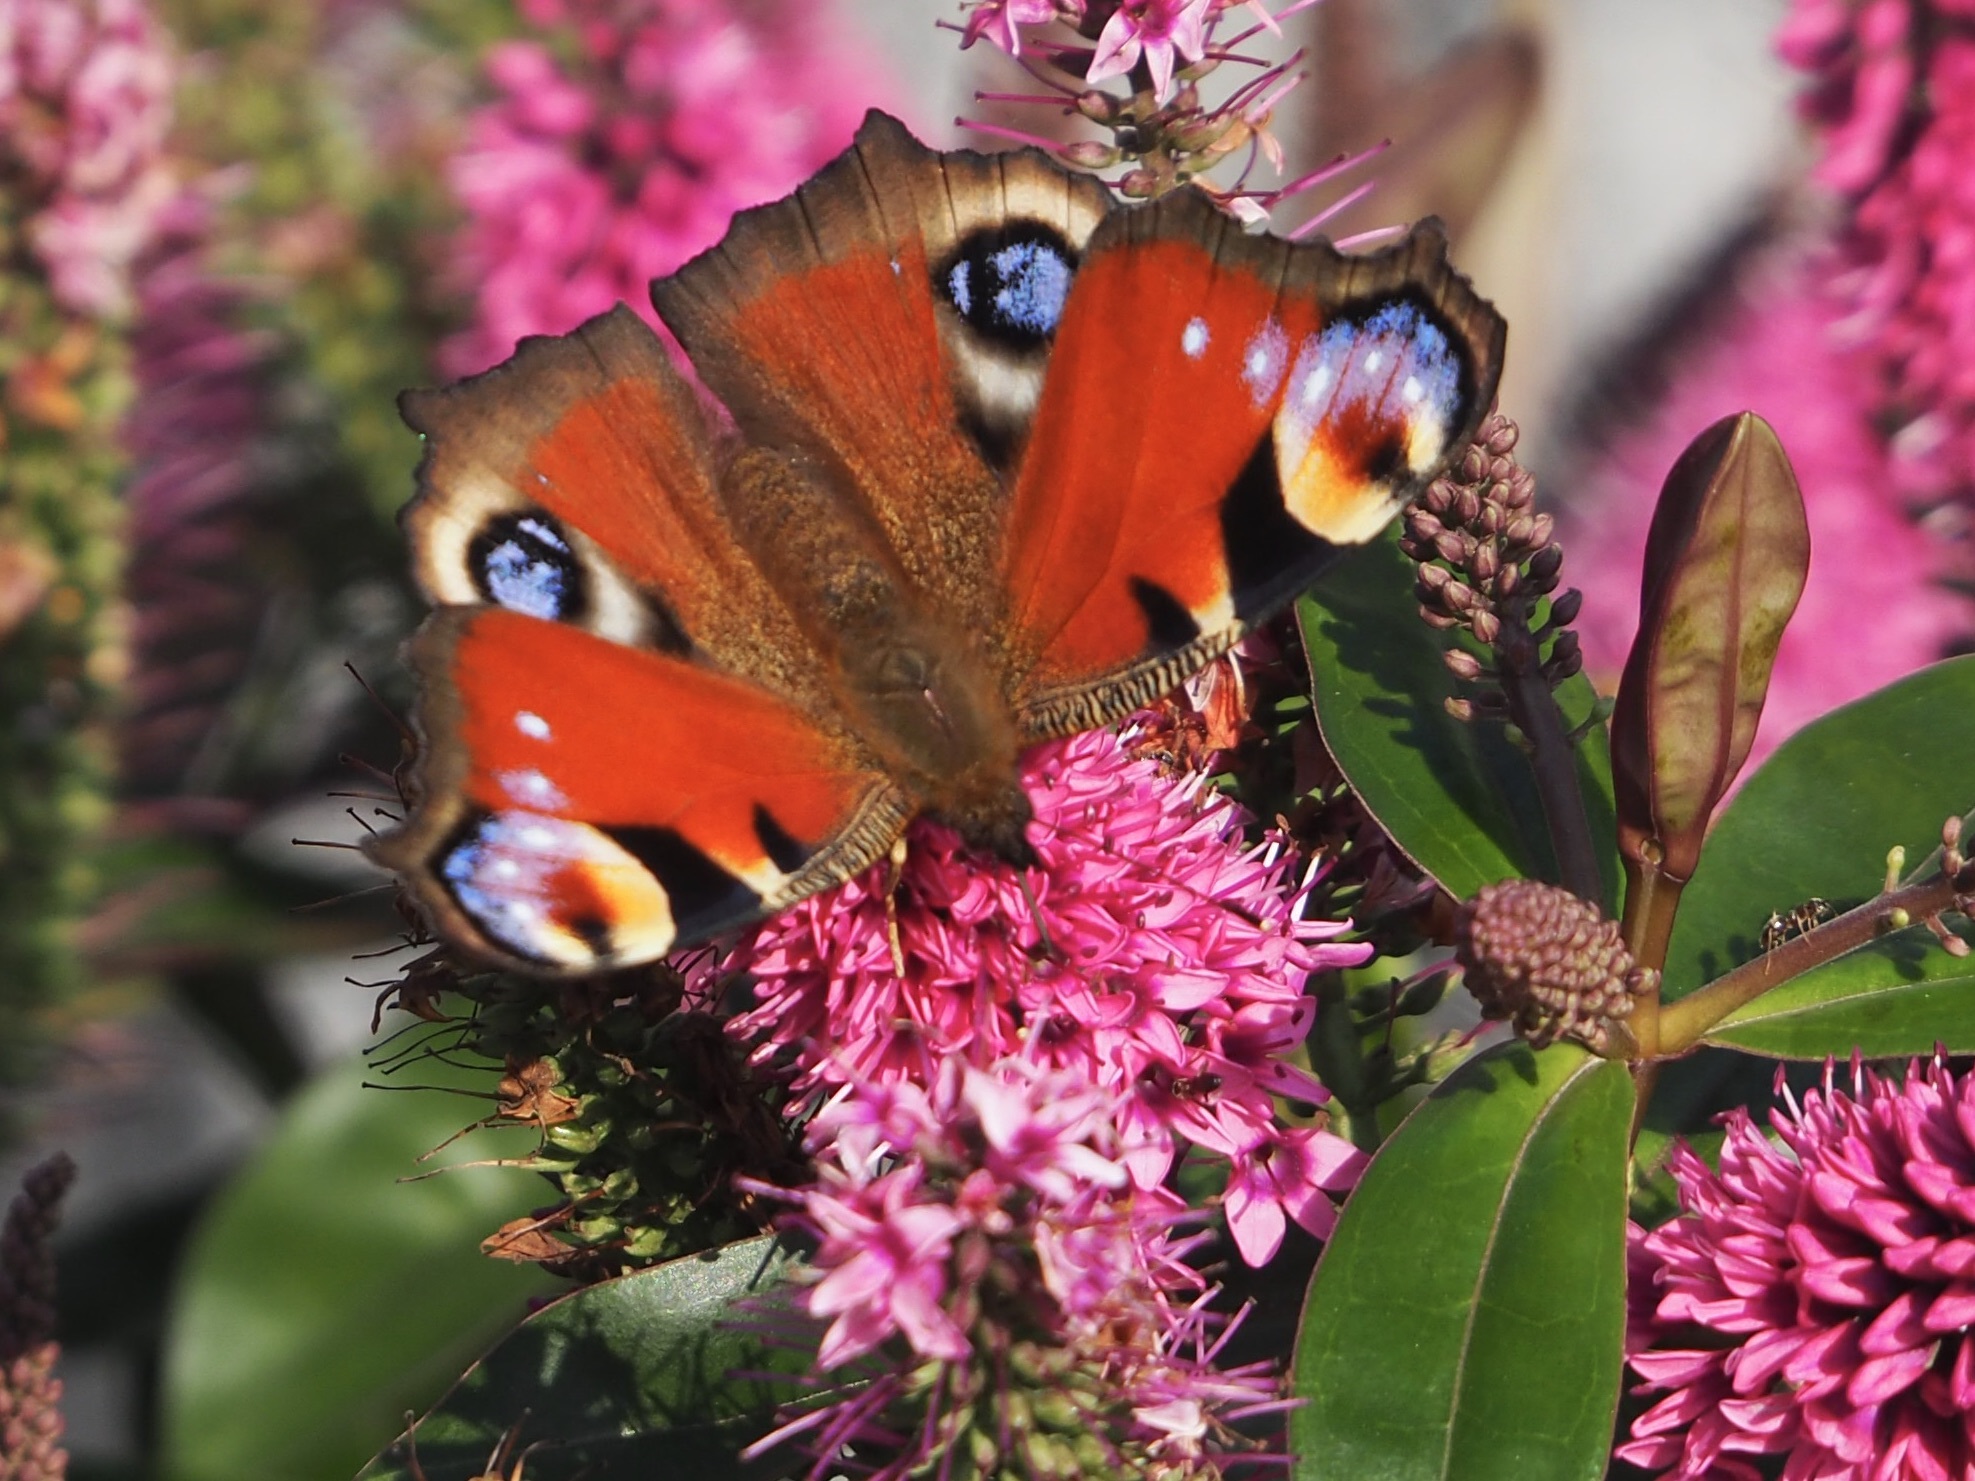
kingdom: Animalia
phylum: Arthropoda
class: Insecta
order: Lepidoptera
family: Nymphalidae
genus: Aglais
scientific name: Aglais io
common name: Peacock
